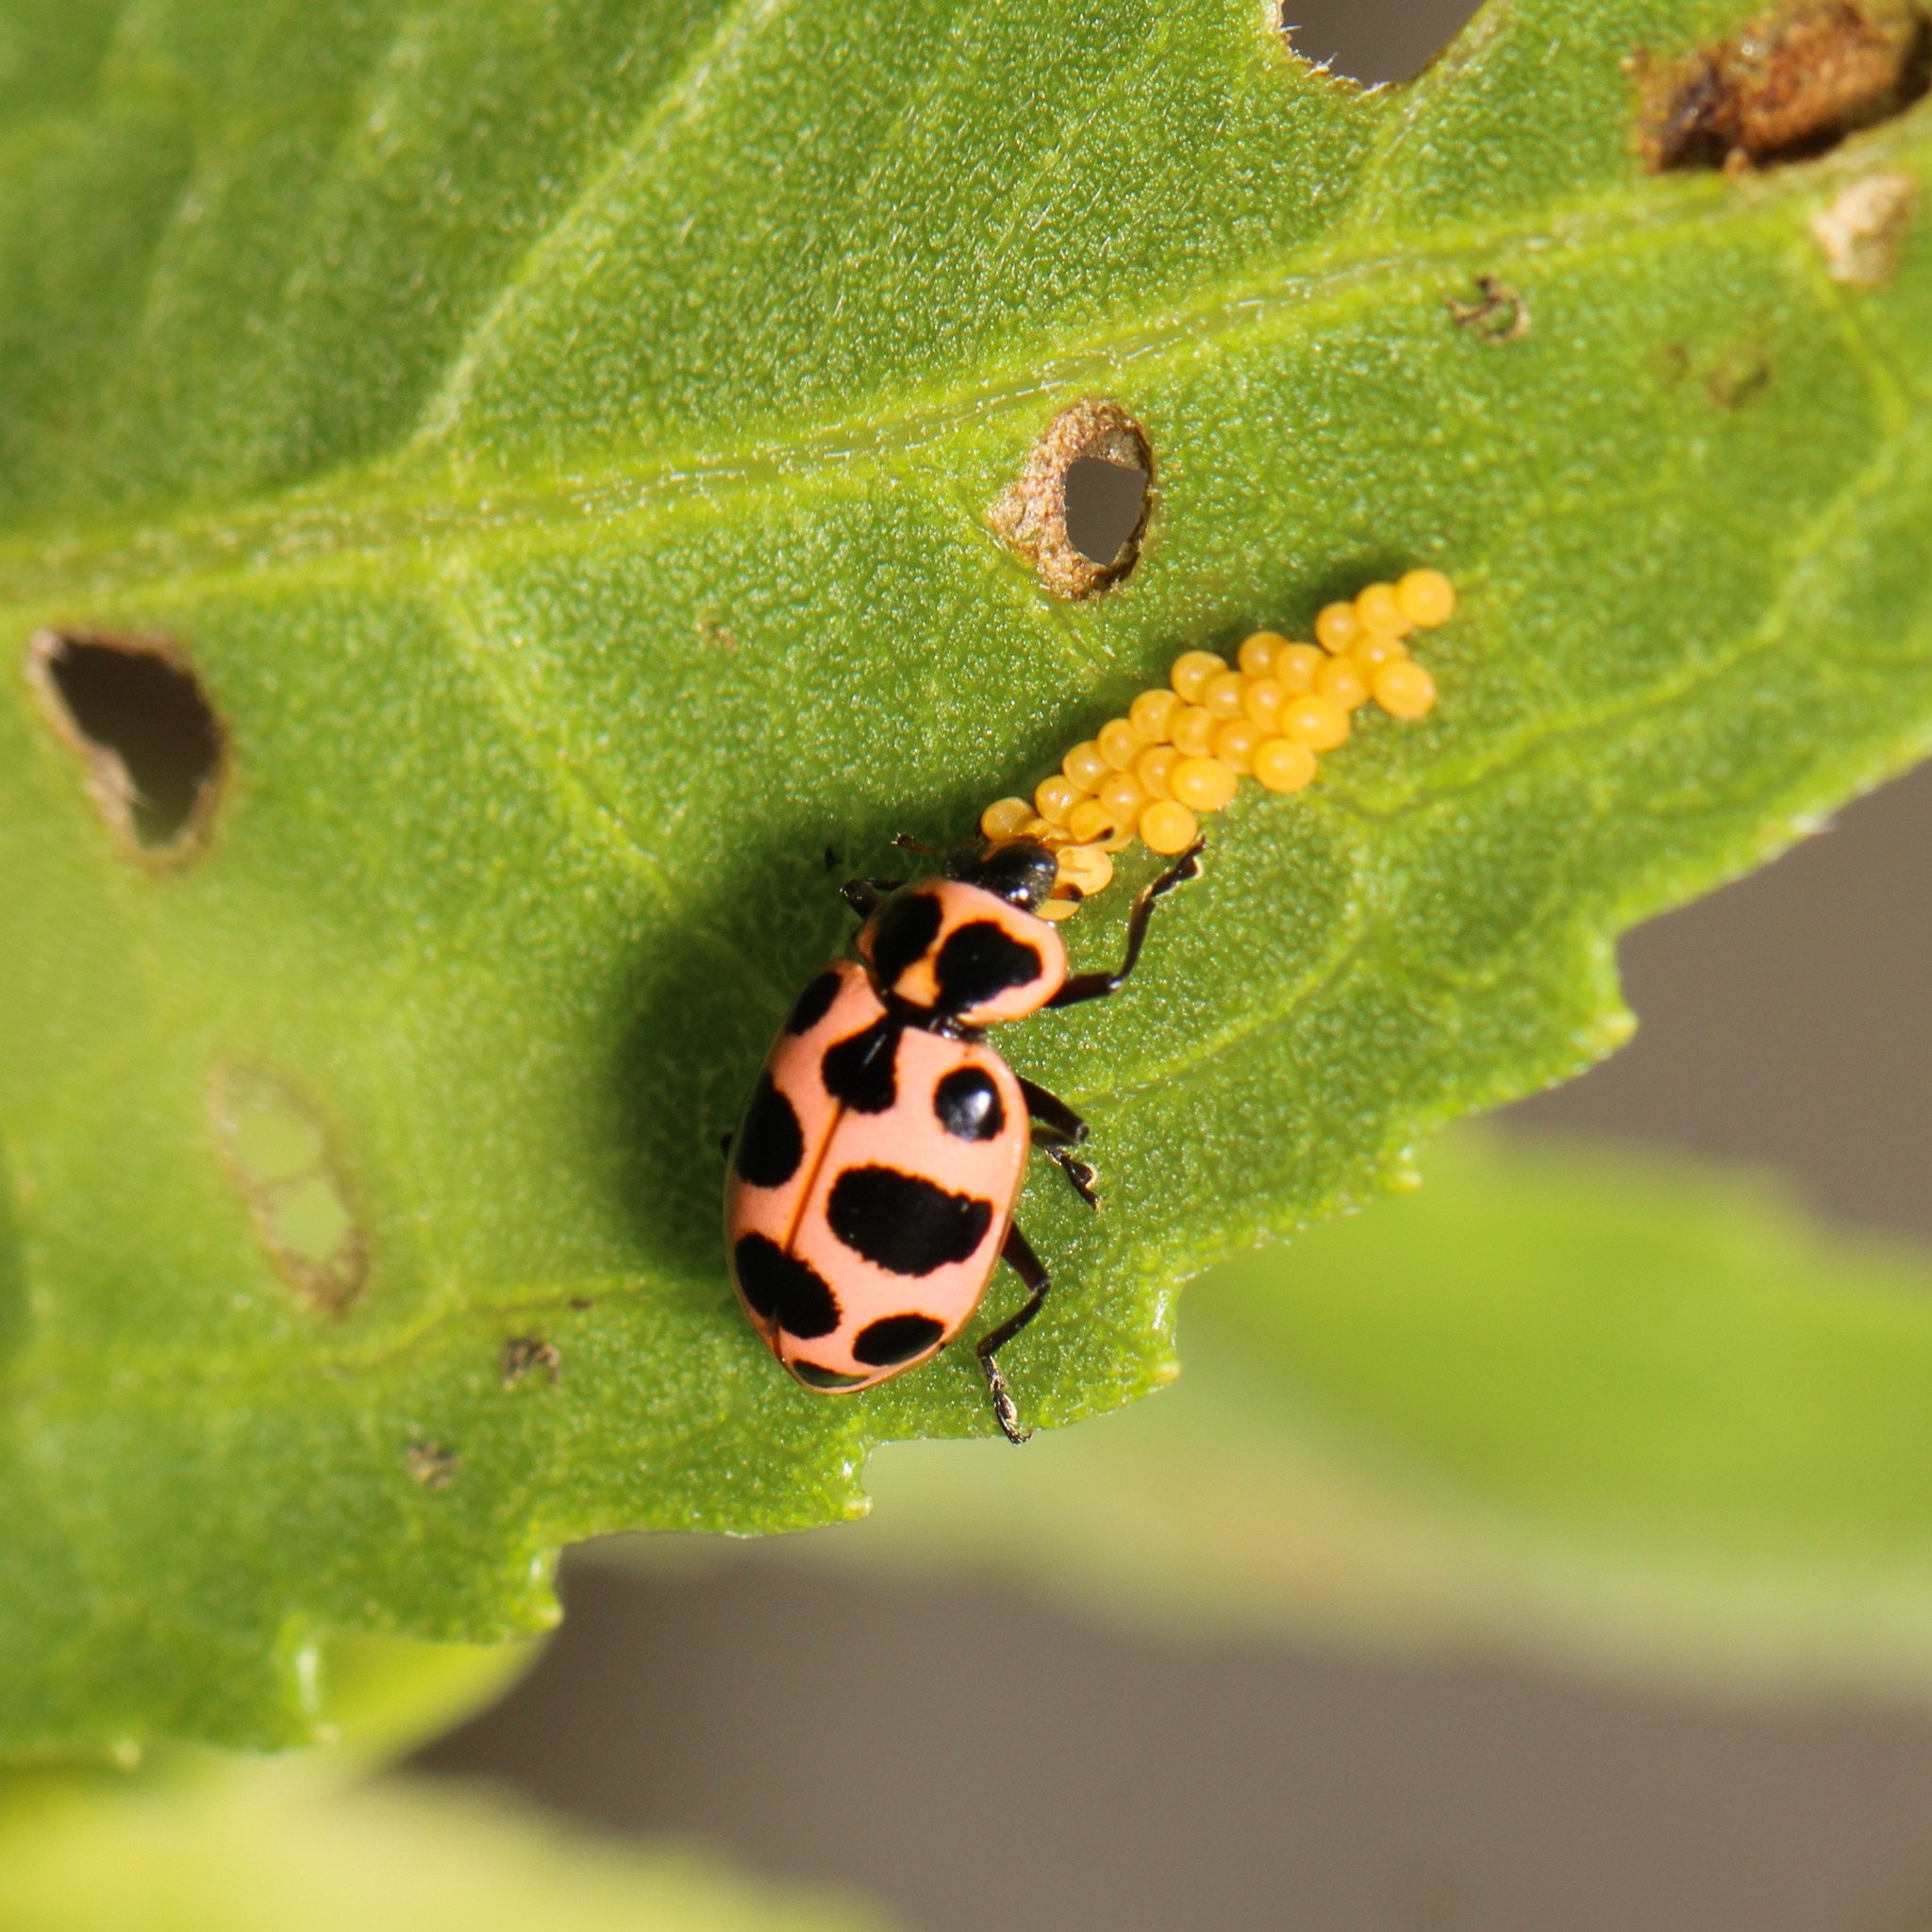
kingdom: Animalia
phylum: Arthropoda
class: Insecta
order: Coleoptera
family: Coccinellidae
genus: Coleomegilla
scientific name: Coleomegilla maculata
